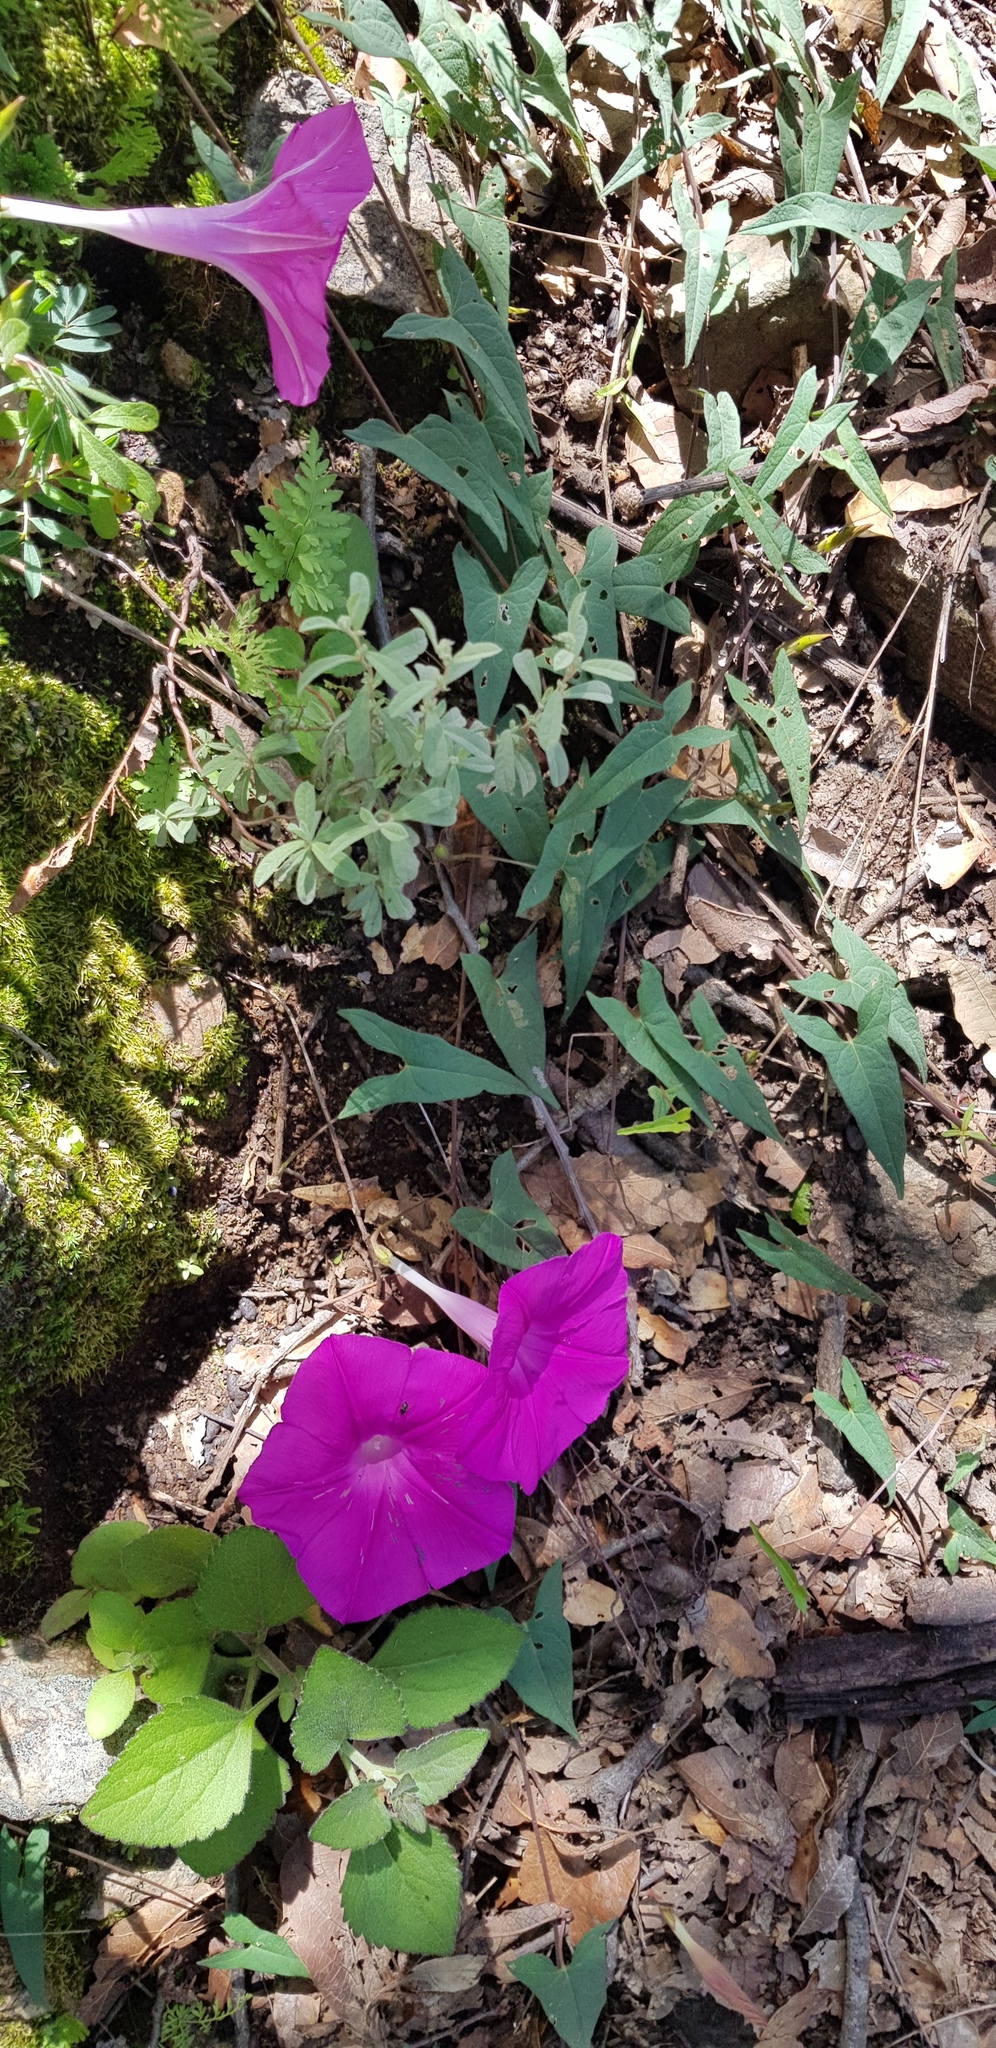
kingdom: Plantae
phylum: Tracheophyta
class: Magnoliopsida
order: Solanales
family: Convolvulaceae
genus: Ipomoea
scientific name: Ipomoea elongata
